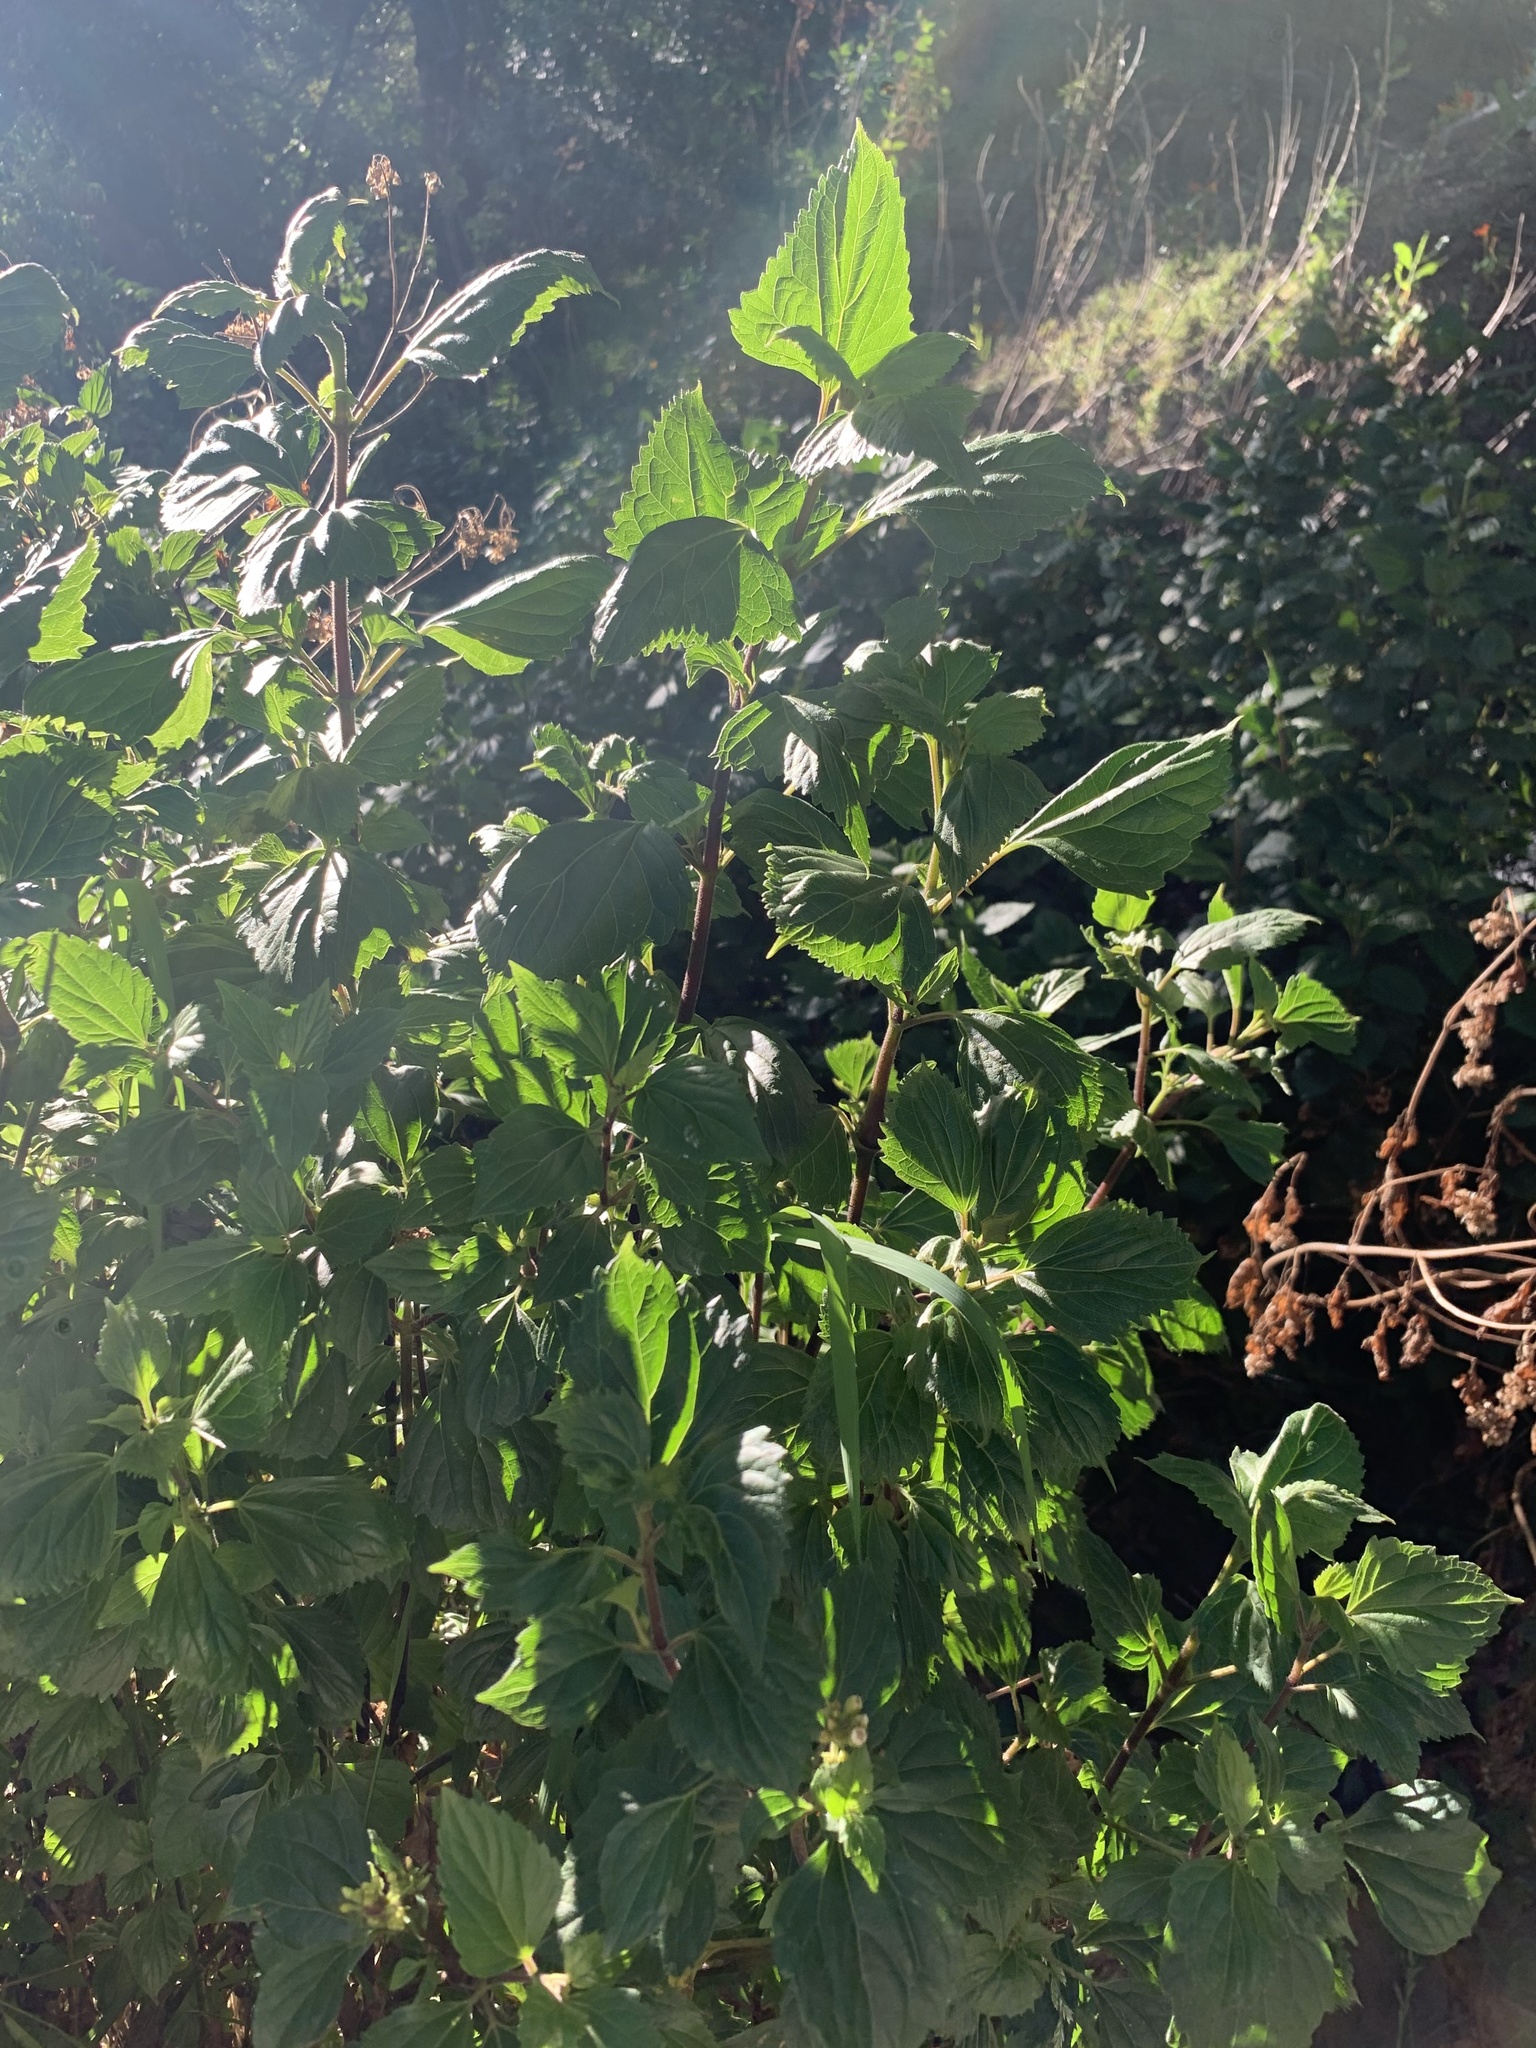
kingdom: Plantae
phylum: Tracheophyta
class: Magnoliopsida
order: Asterales
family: Asteraceae
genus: Ageratina
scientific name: Ageratina adenophora
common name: Sticky snakeroot
